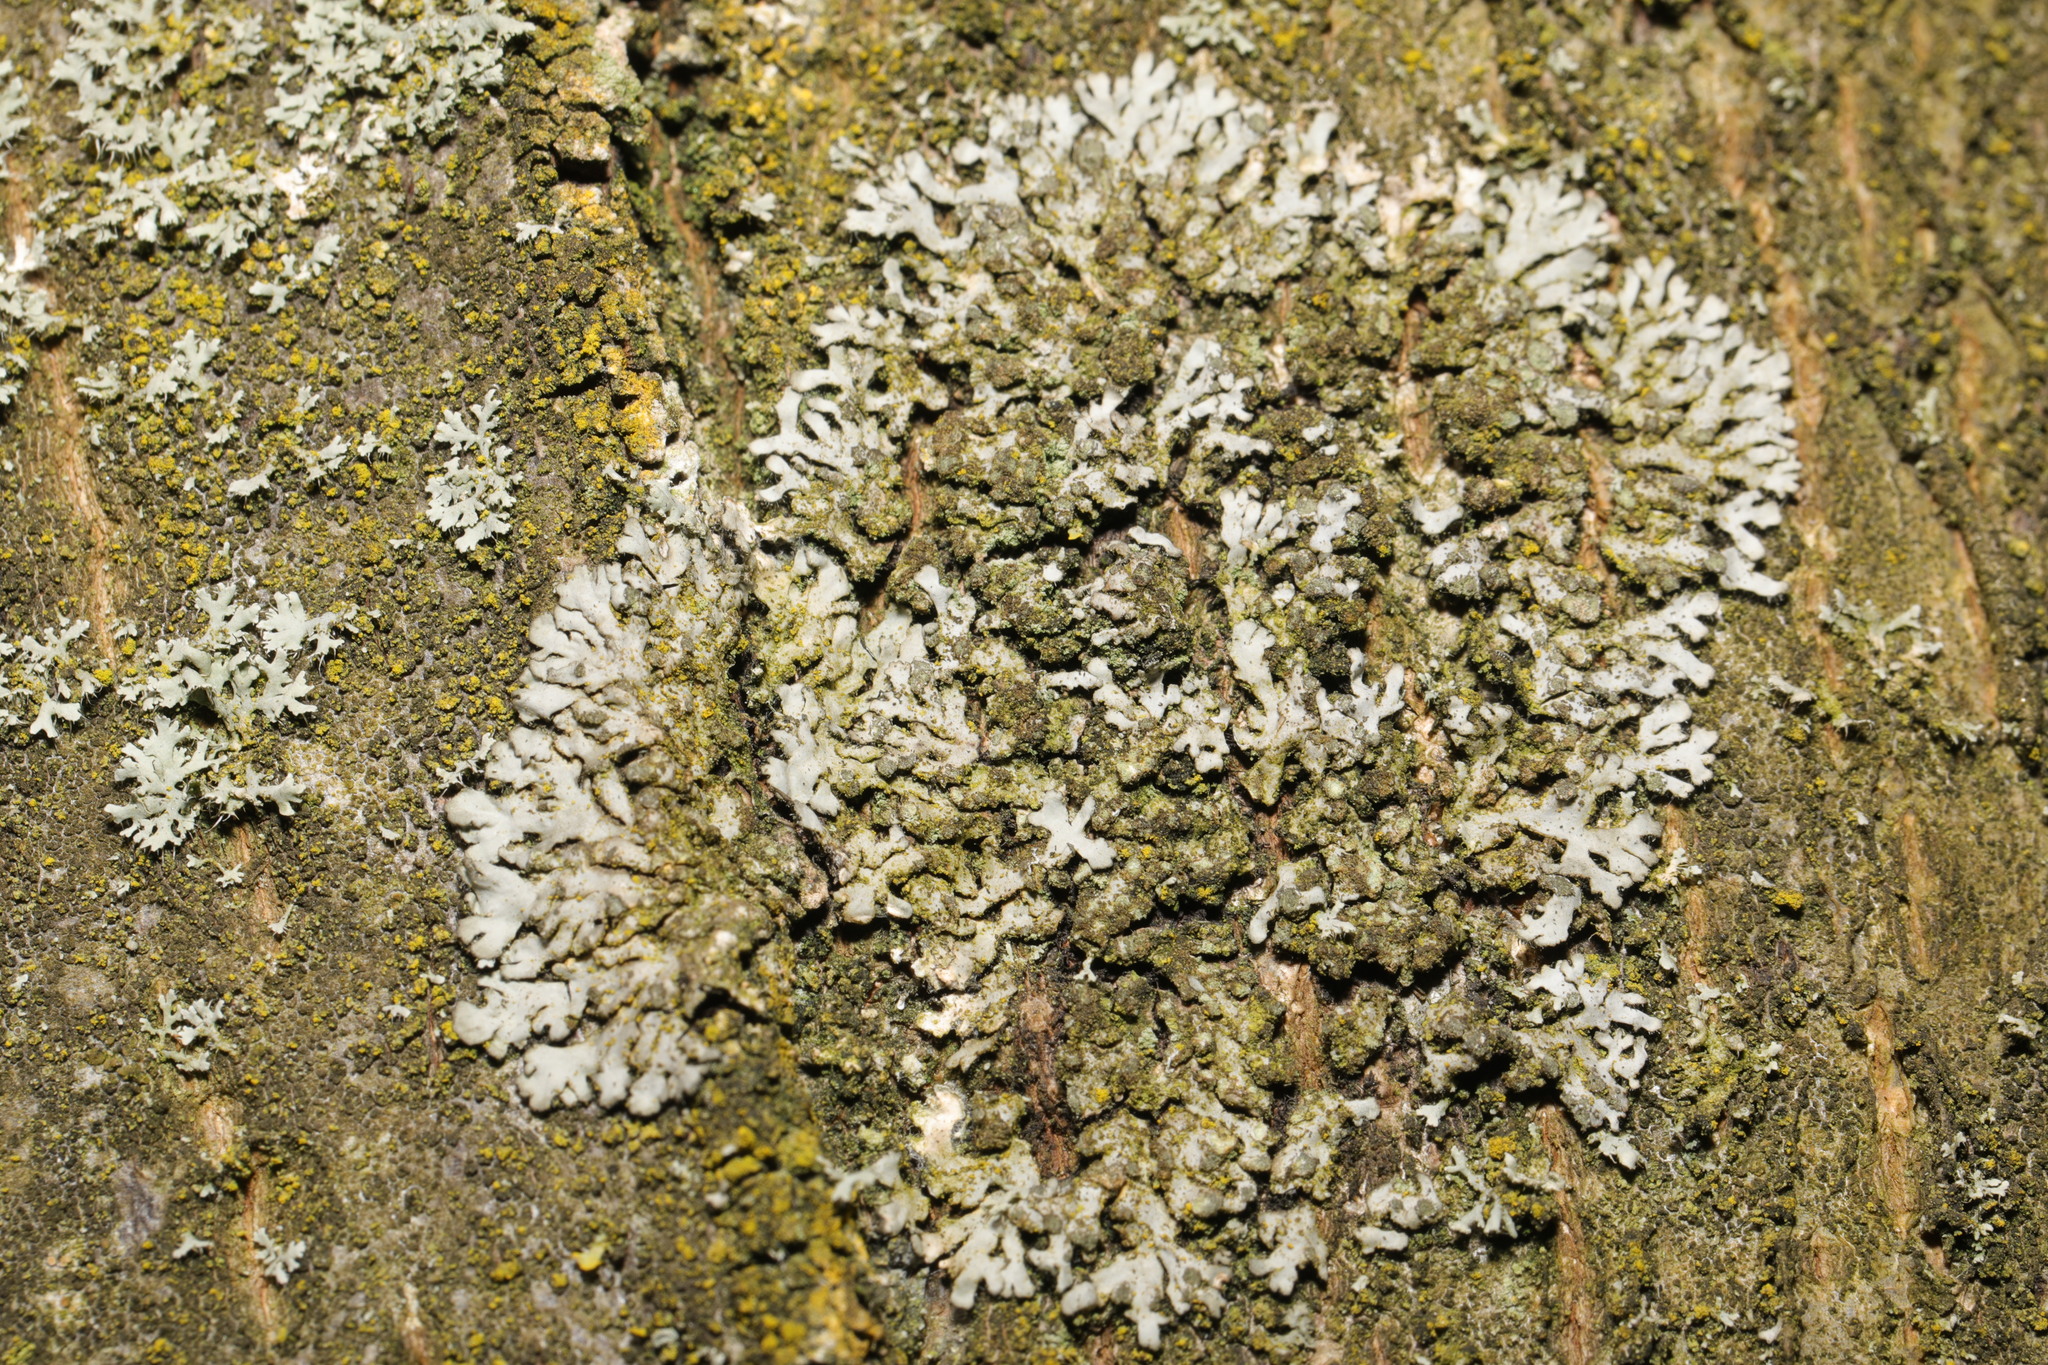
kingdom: Fungi
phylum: Ascomycota
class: Lecanoromycetes
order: Caliciales
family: Physciaceae
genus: Phaeophyscia
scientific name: Phaeophyscia orbicularis
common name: Mealy shadow lichen
